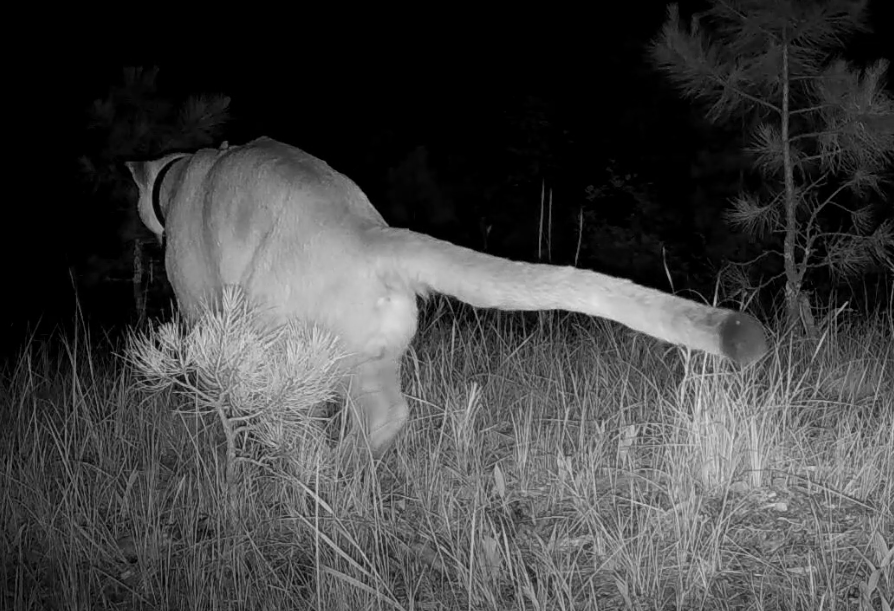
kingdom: Animalia
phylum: Chordata
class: Mammalia
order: Carnivora
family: Felidae
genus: Puma
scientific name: Puma concolor
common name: Puma
